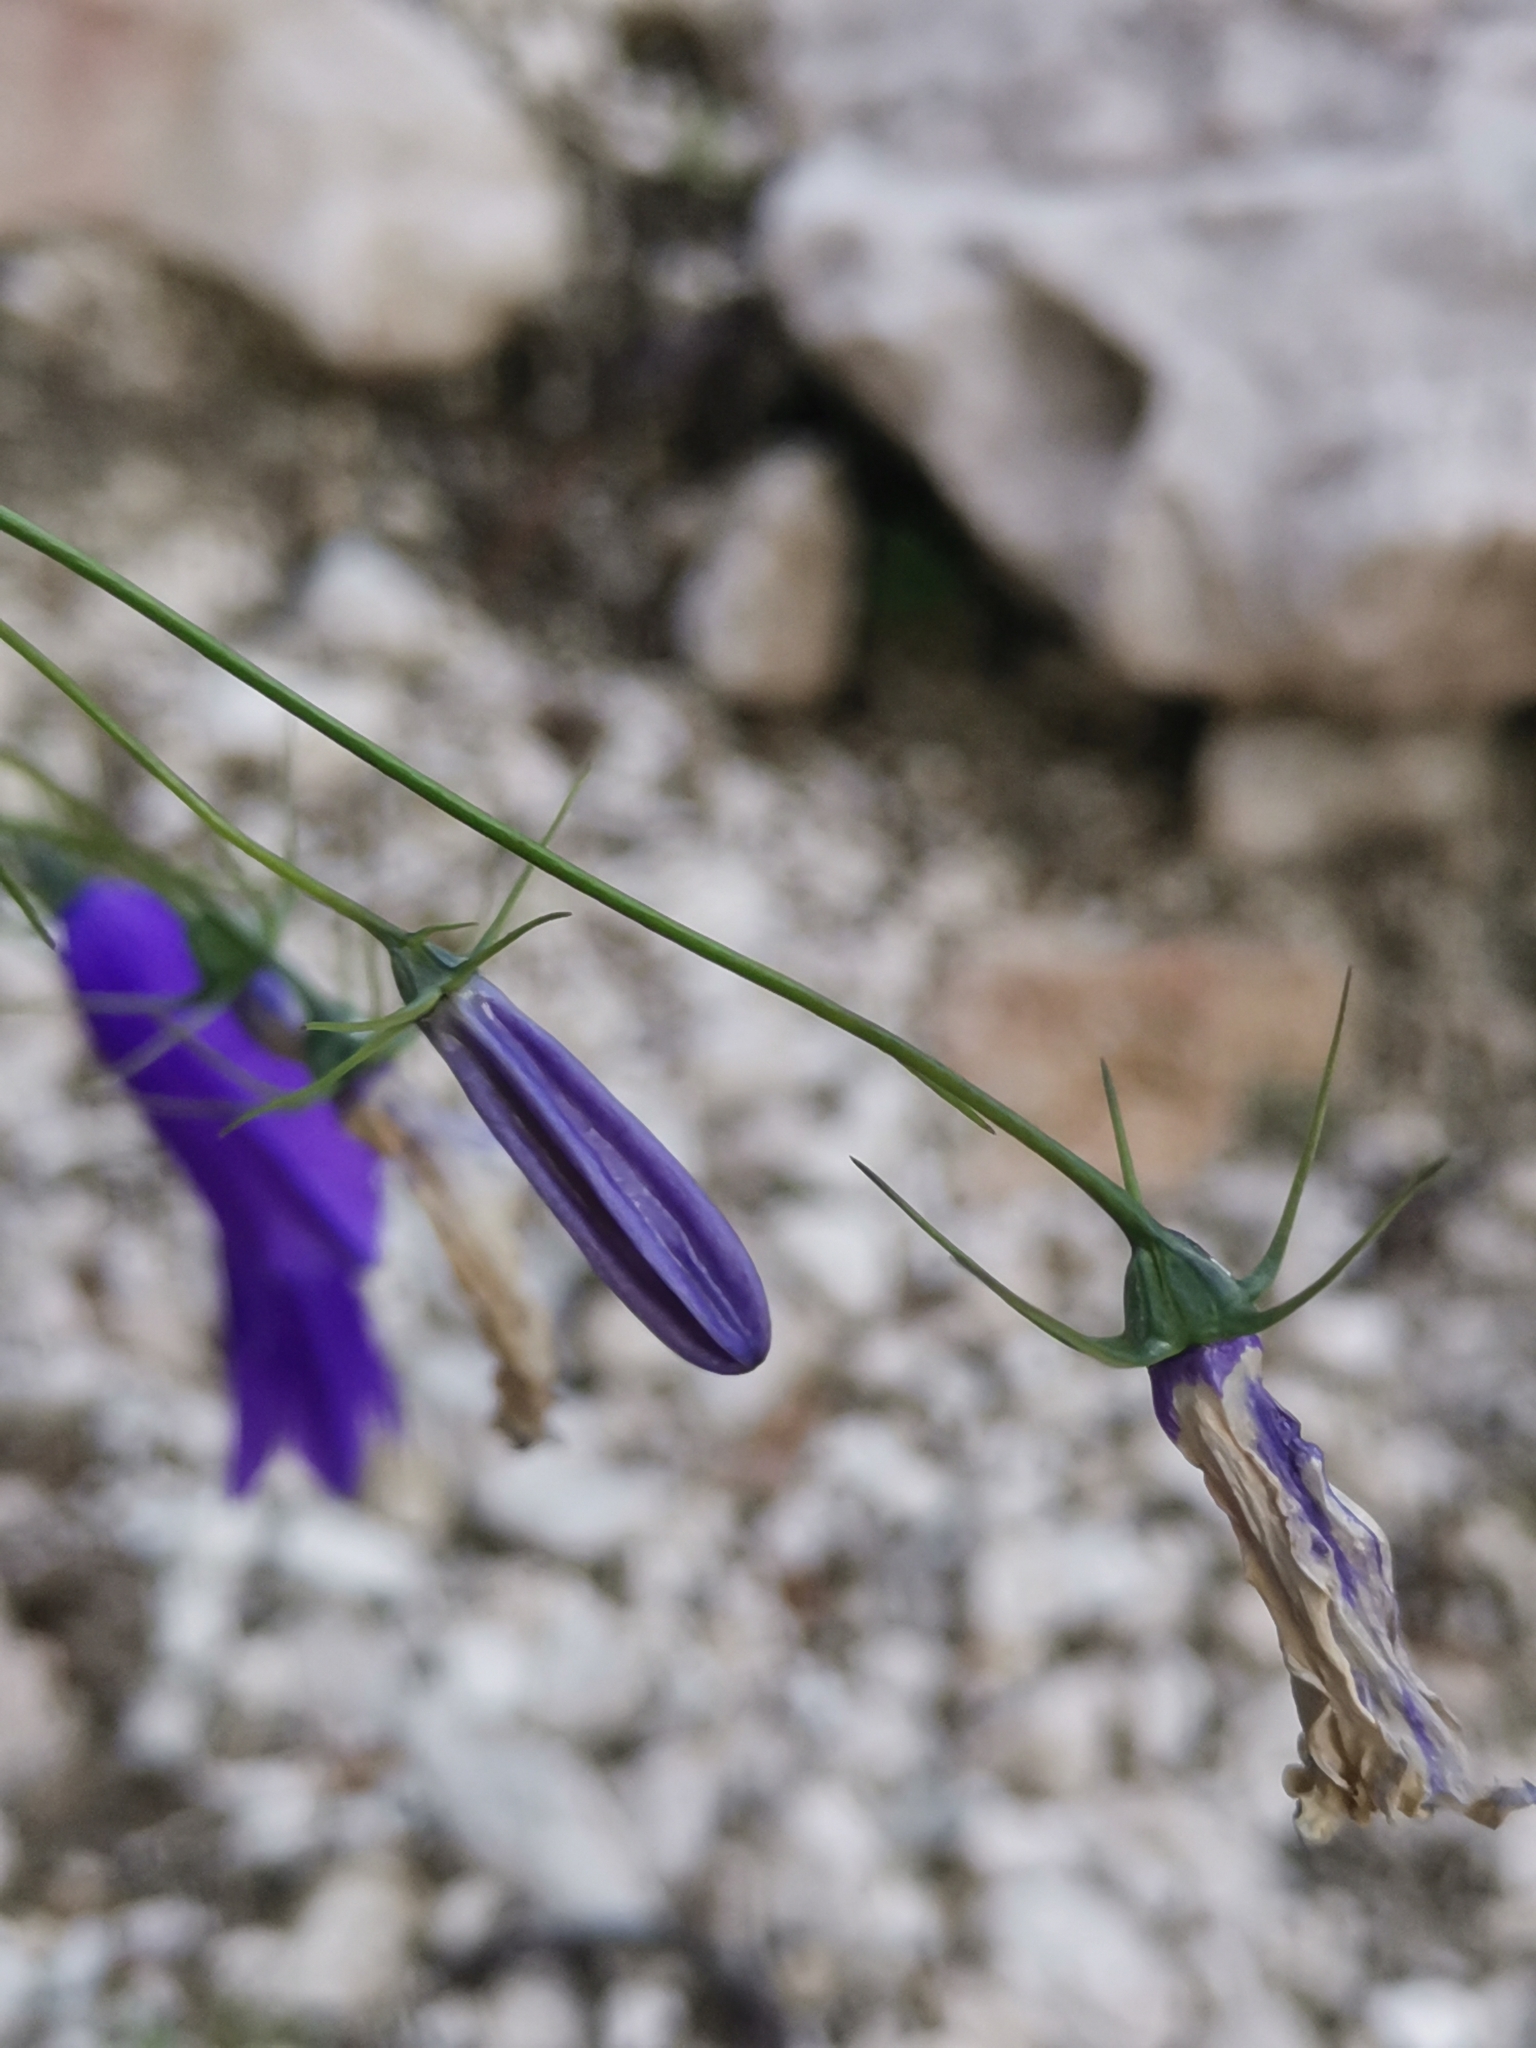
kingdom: Plantae
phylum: Tracheophyta
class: Magnoliopsida
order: Asterales
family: Campanulaceae
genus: Campanula
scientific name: Campanula carnica
